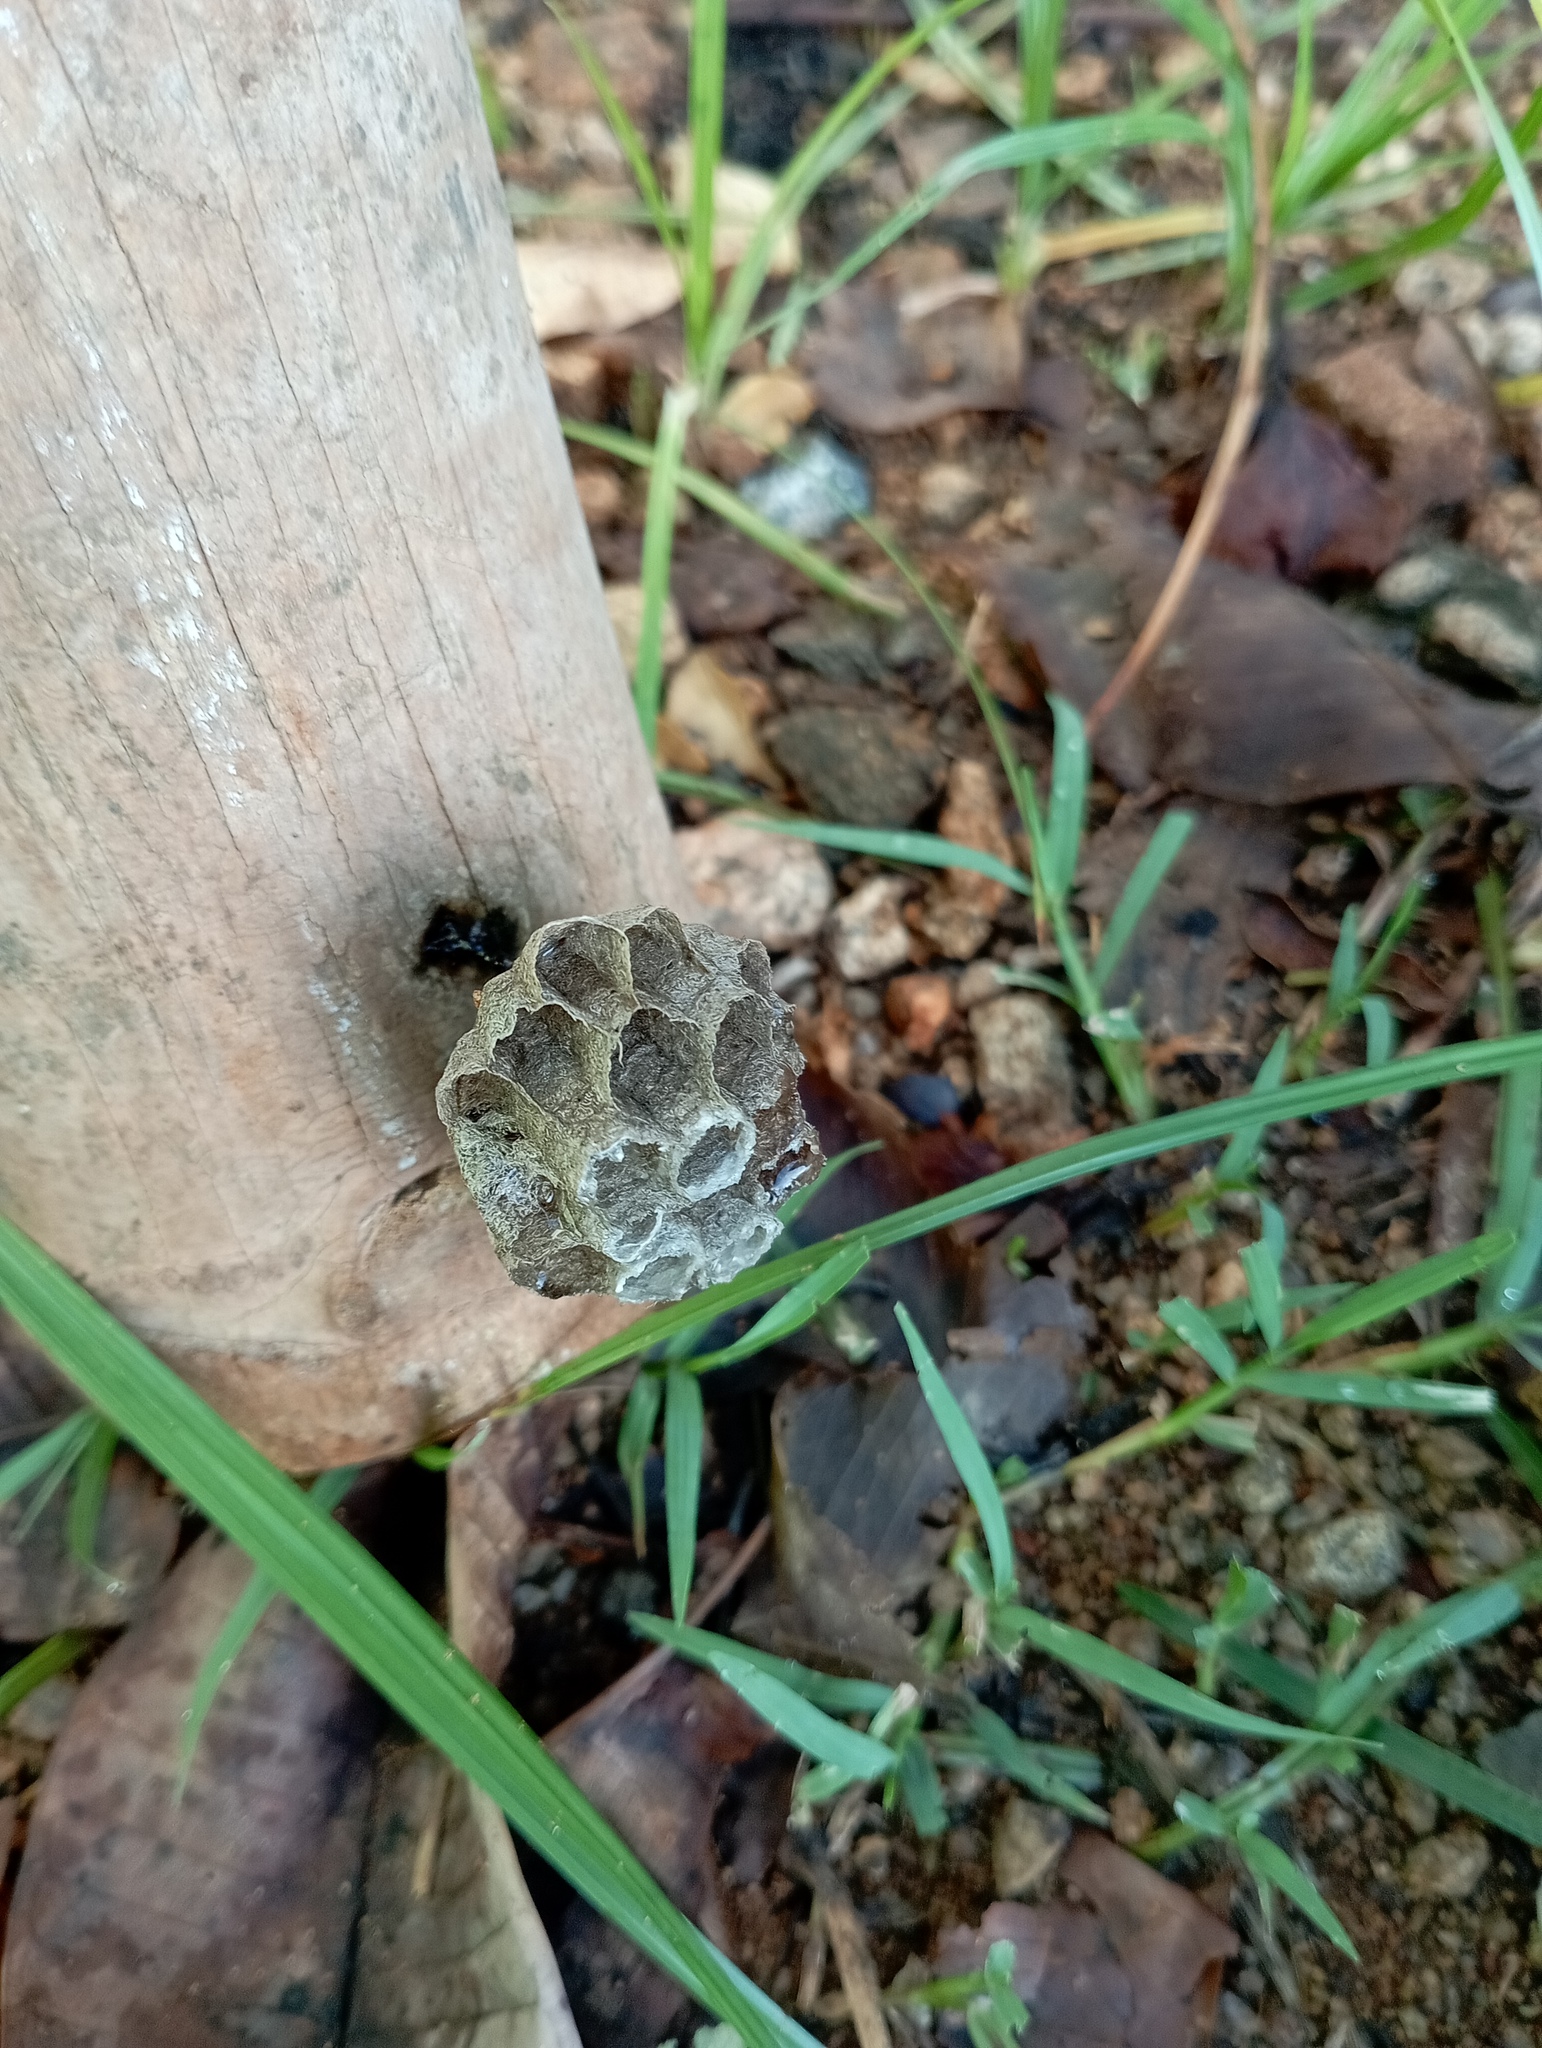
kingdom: Animalia
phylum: Arthropoda
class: Insecta
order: Hymenoptera
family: Vespidae
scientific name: Vespidae
